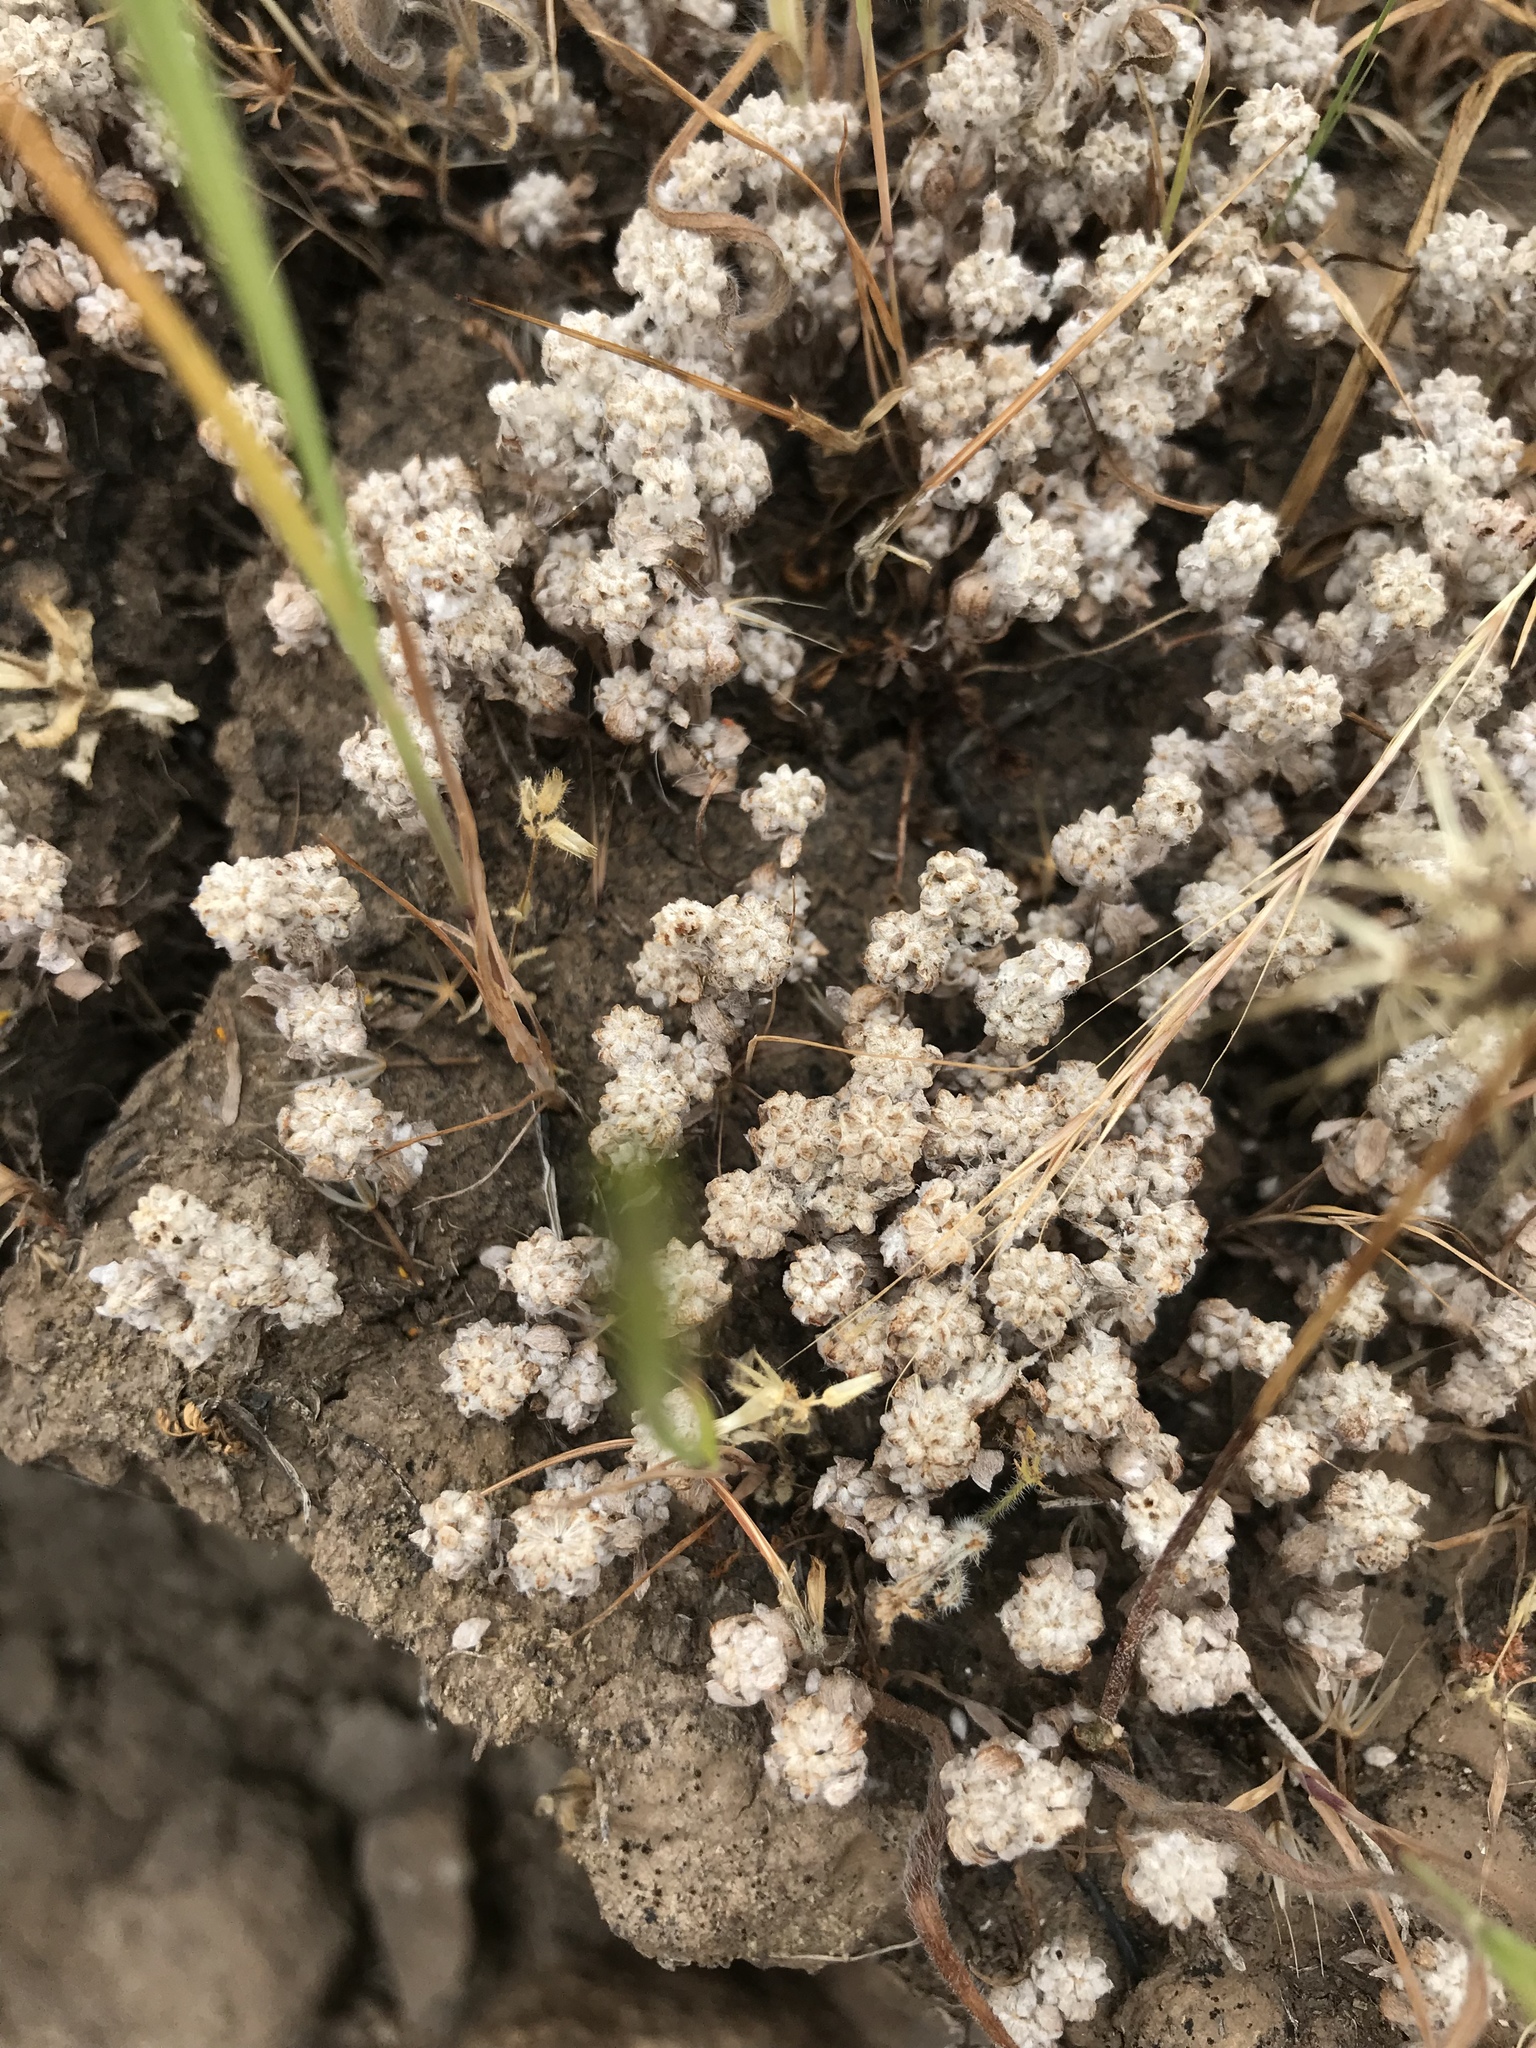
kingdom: Plantae
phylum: Tracheophyta
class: Magnoliopsida
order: Asterales
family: Asteraceae
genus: Psilocarphus
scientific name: Psilocarphus tenellus
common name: Slender woolly-marbles
